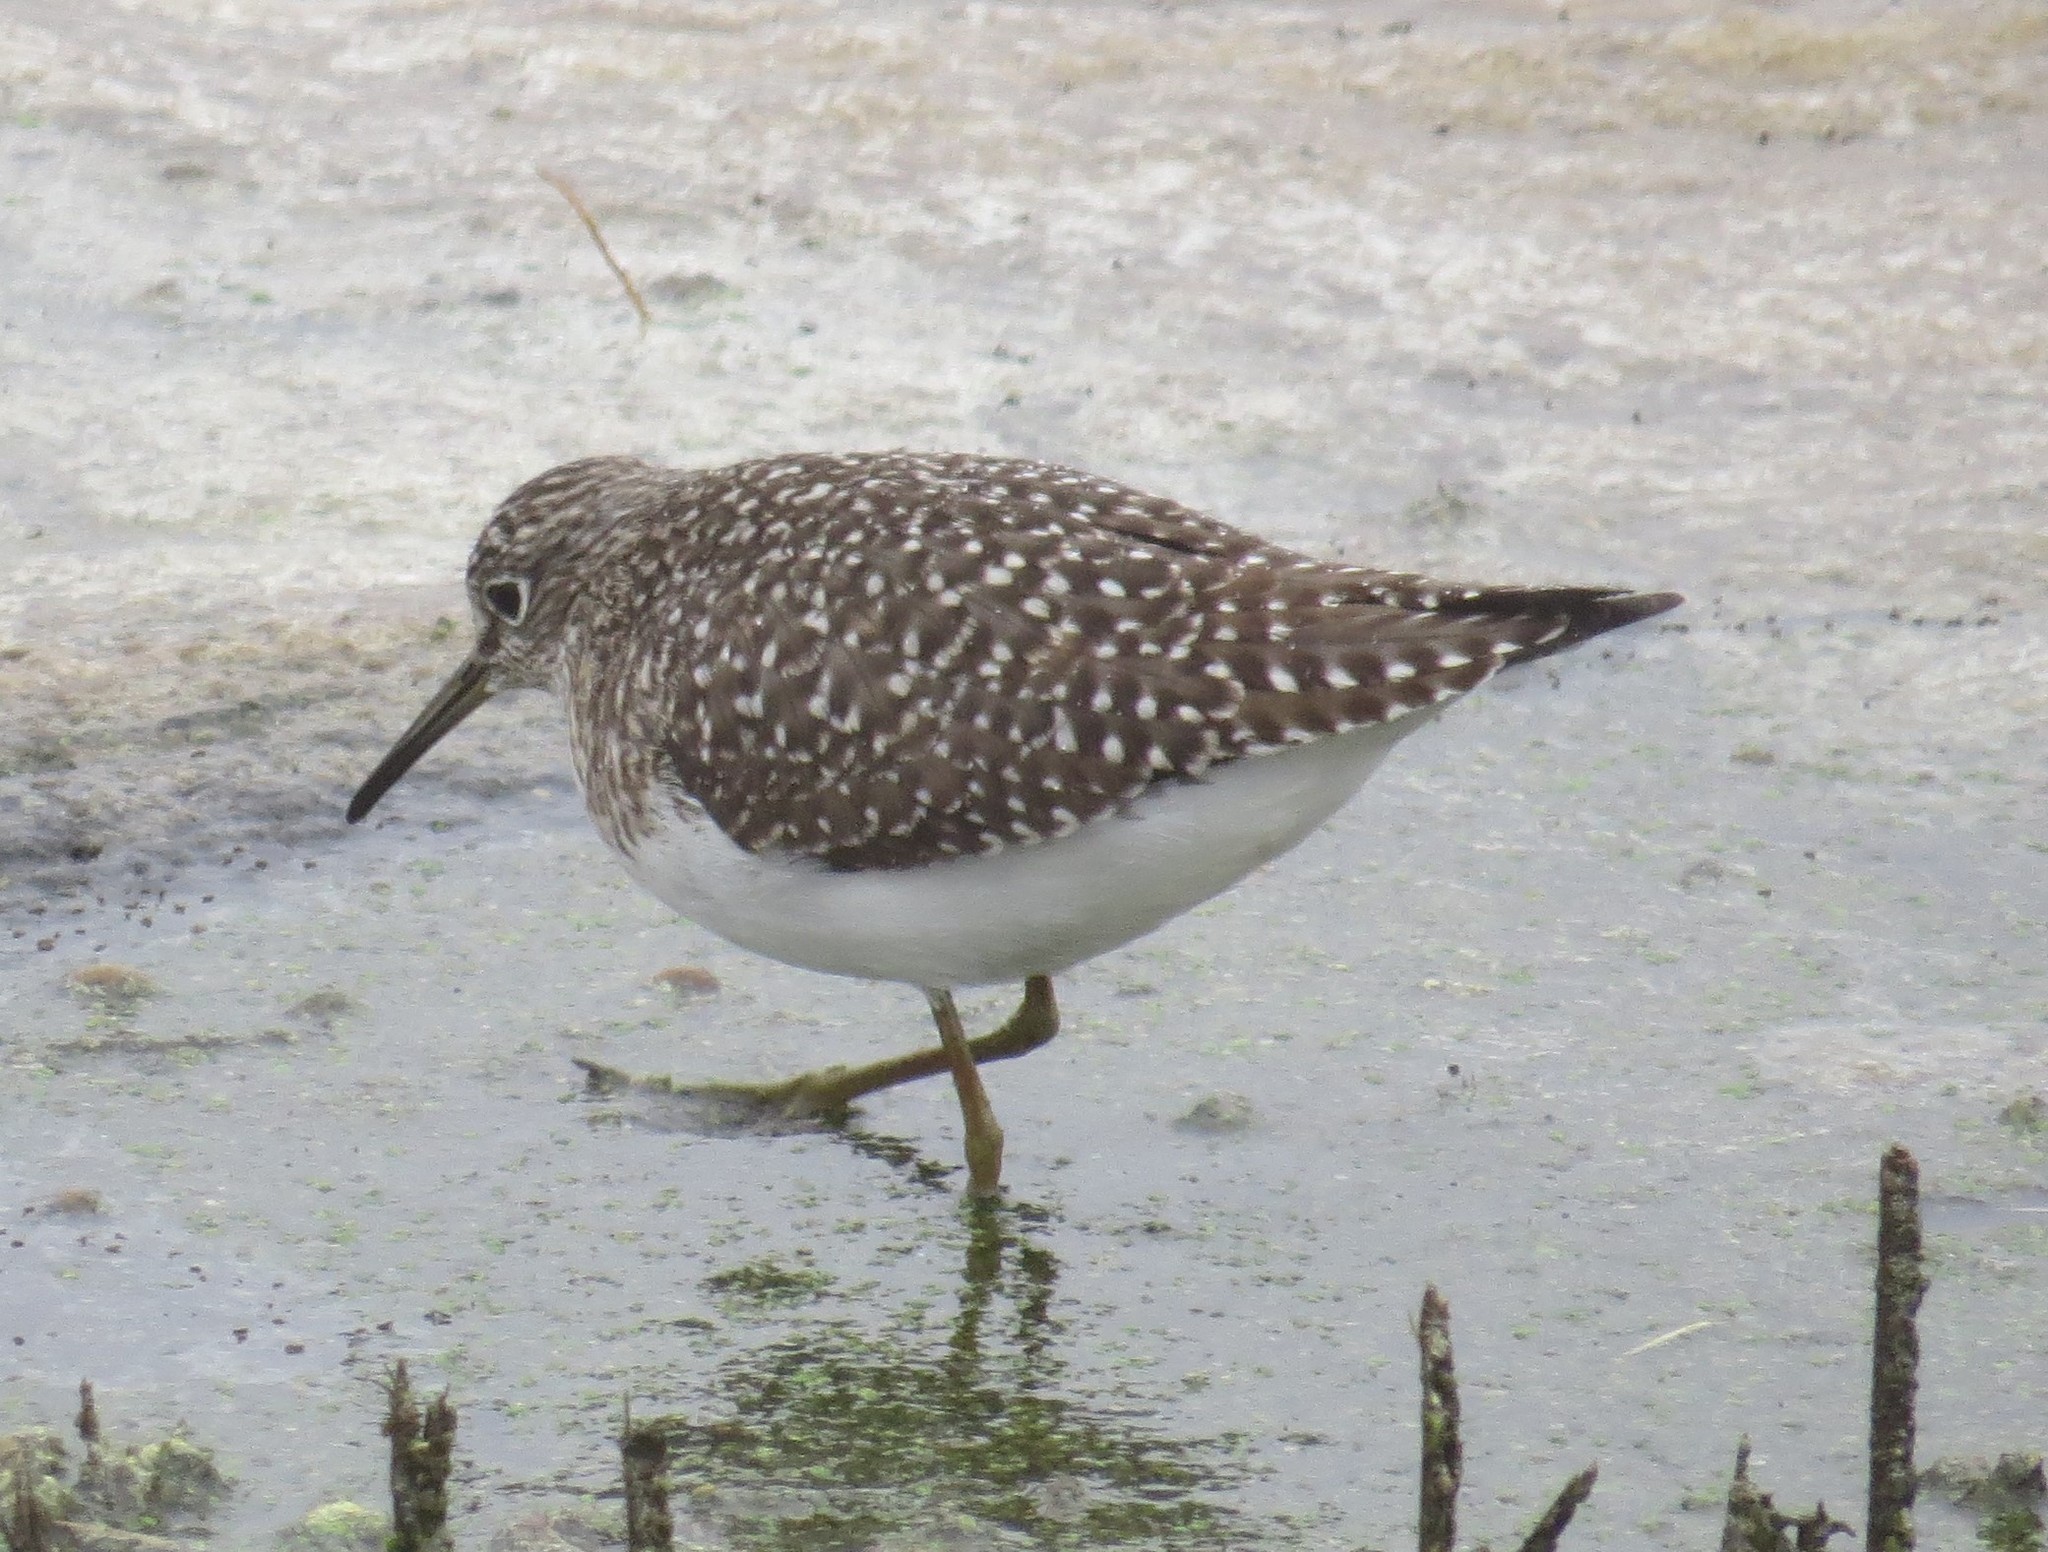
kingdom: Animalia
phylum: Chordata
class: Aves
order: Charadriiformes
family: Scolopacidae
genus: Tringa
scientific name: Tringa solitaria
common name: Solitary sandpiper
